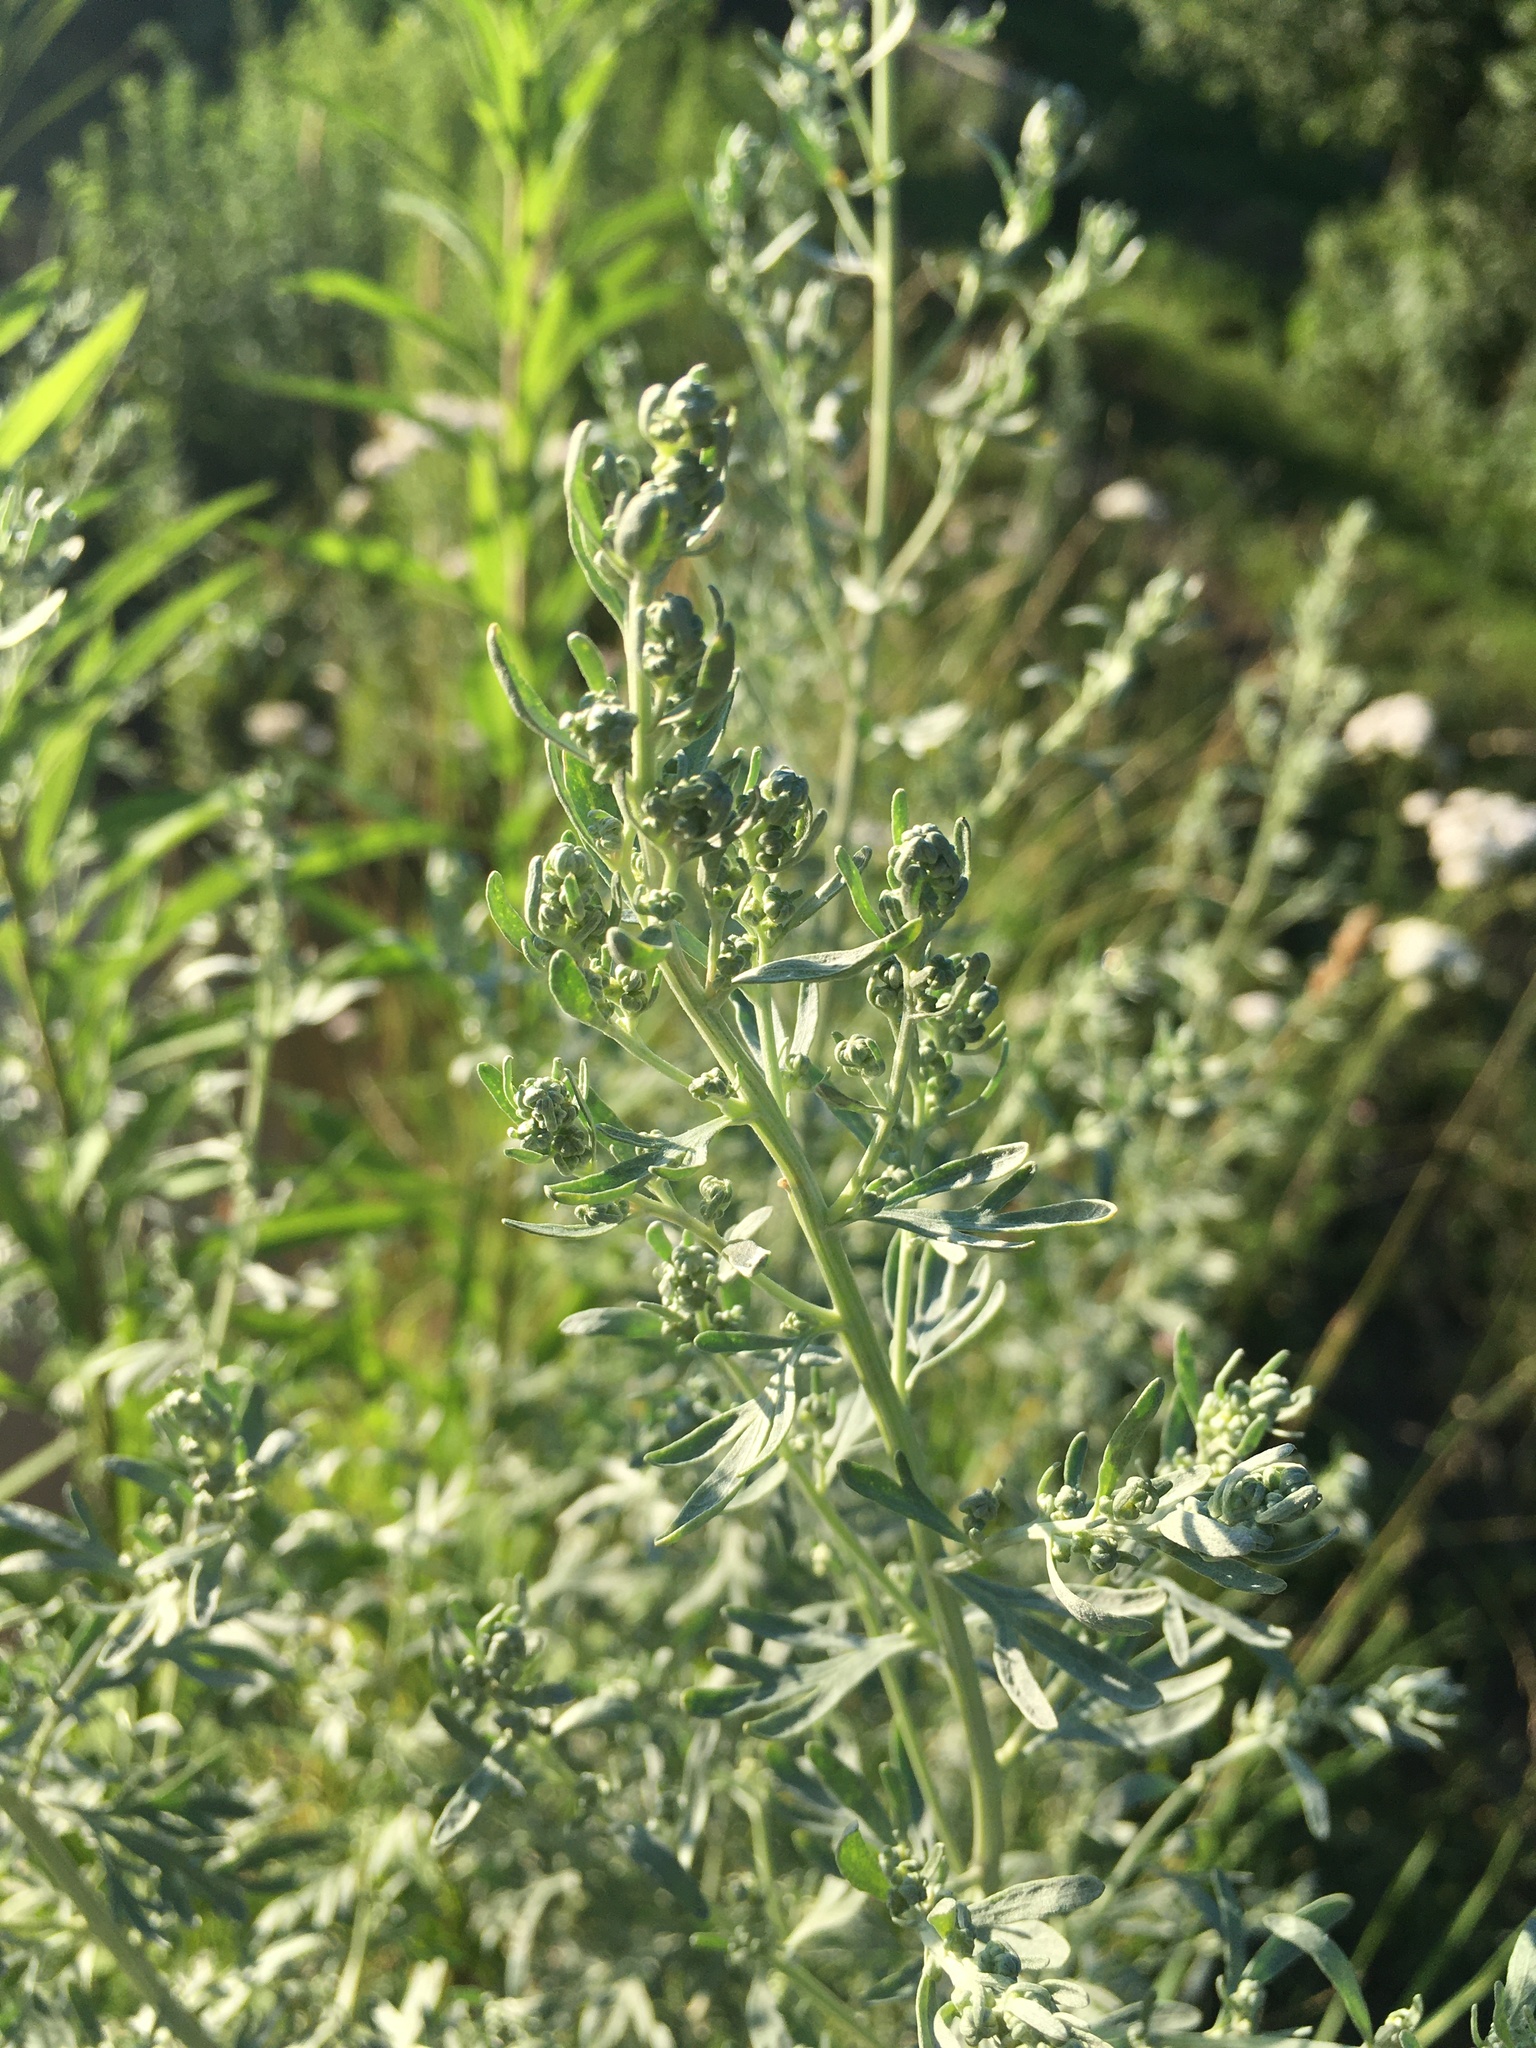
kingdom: Plantae
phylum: Tracheophyta
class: Magnoliopsida
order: Asterales
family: Asteraceae
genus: Artemisia
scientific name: Artemisia absinthium
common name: Wormwood
